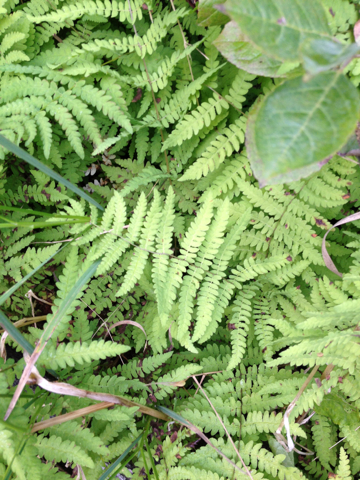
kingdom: Plantae
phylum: Tracheophyta
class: Polypodiopsida
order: Polypodiales
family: Thelypteridaceae
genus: Thelypteris
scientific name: Thelypteris palustris
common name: Marsh fern
